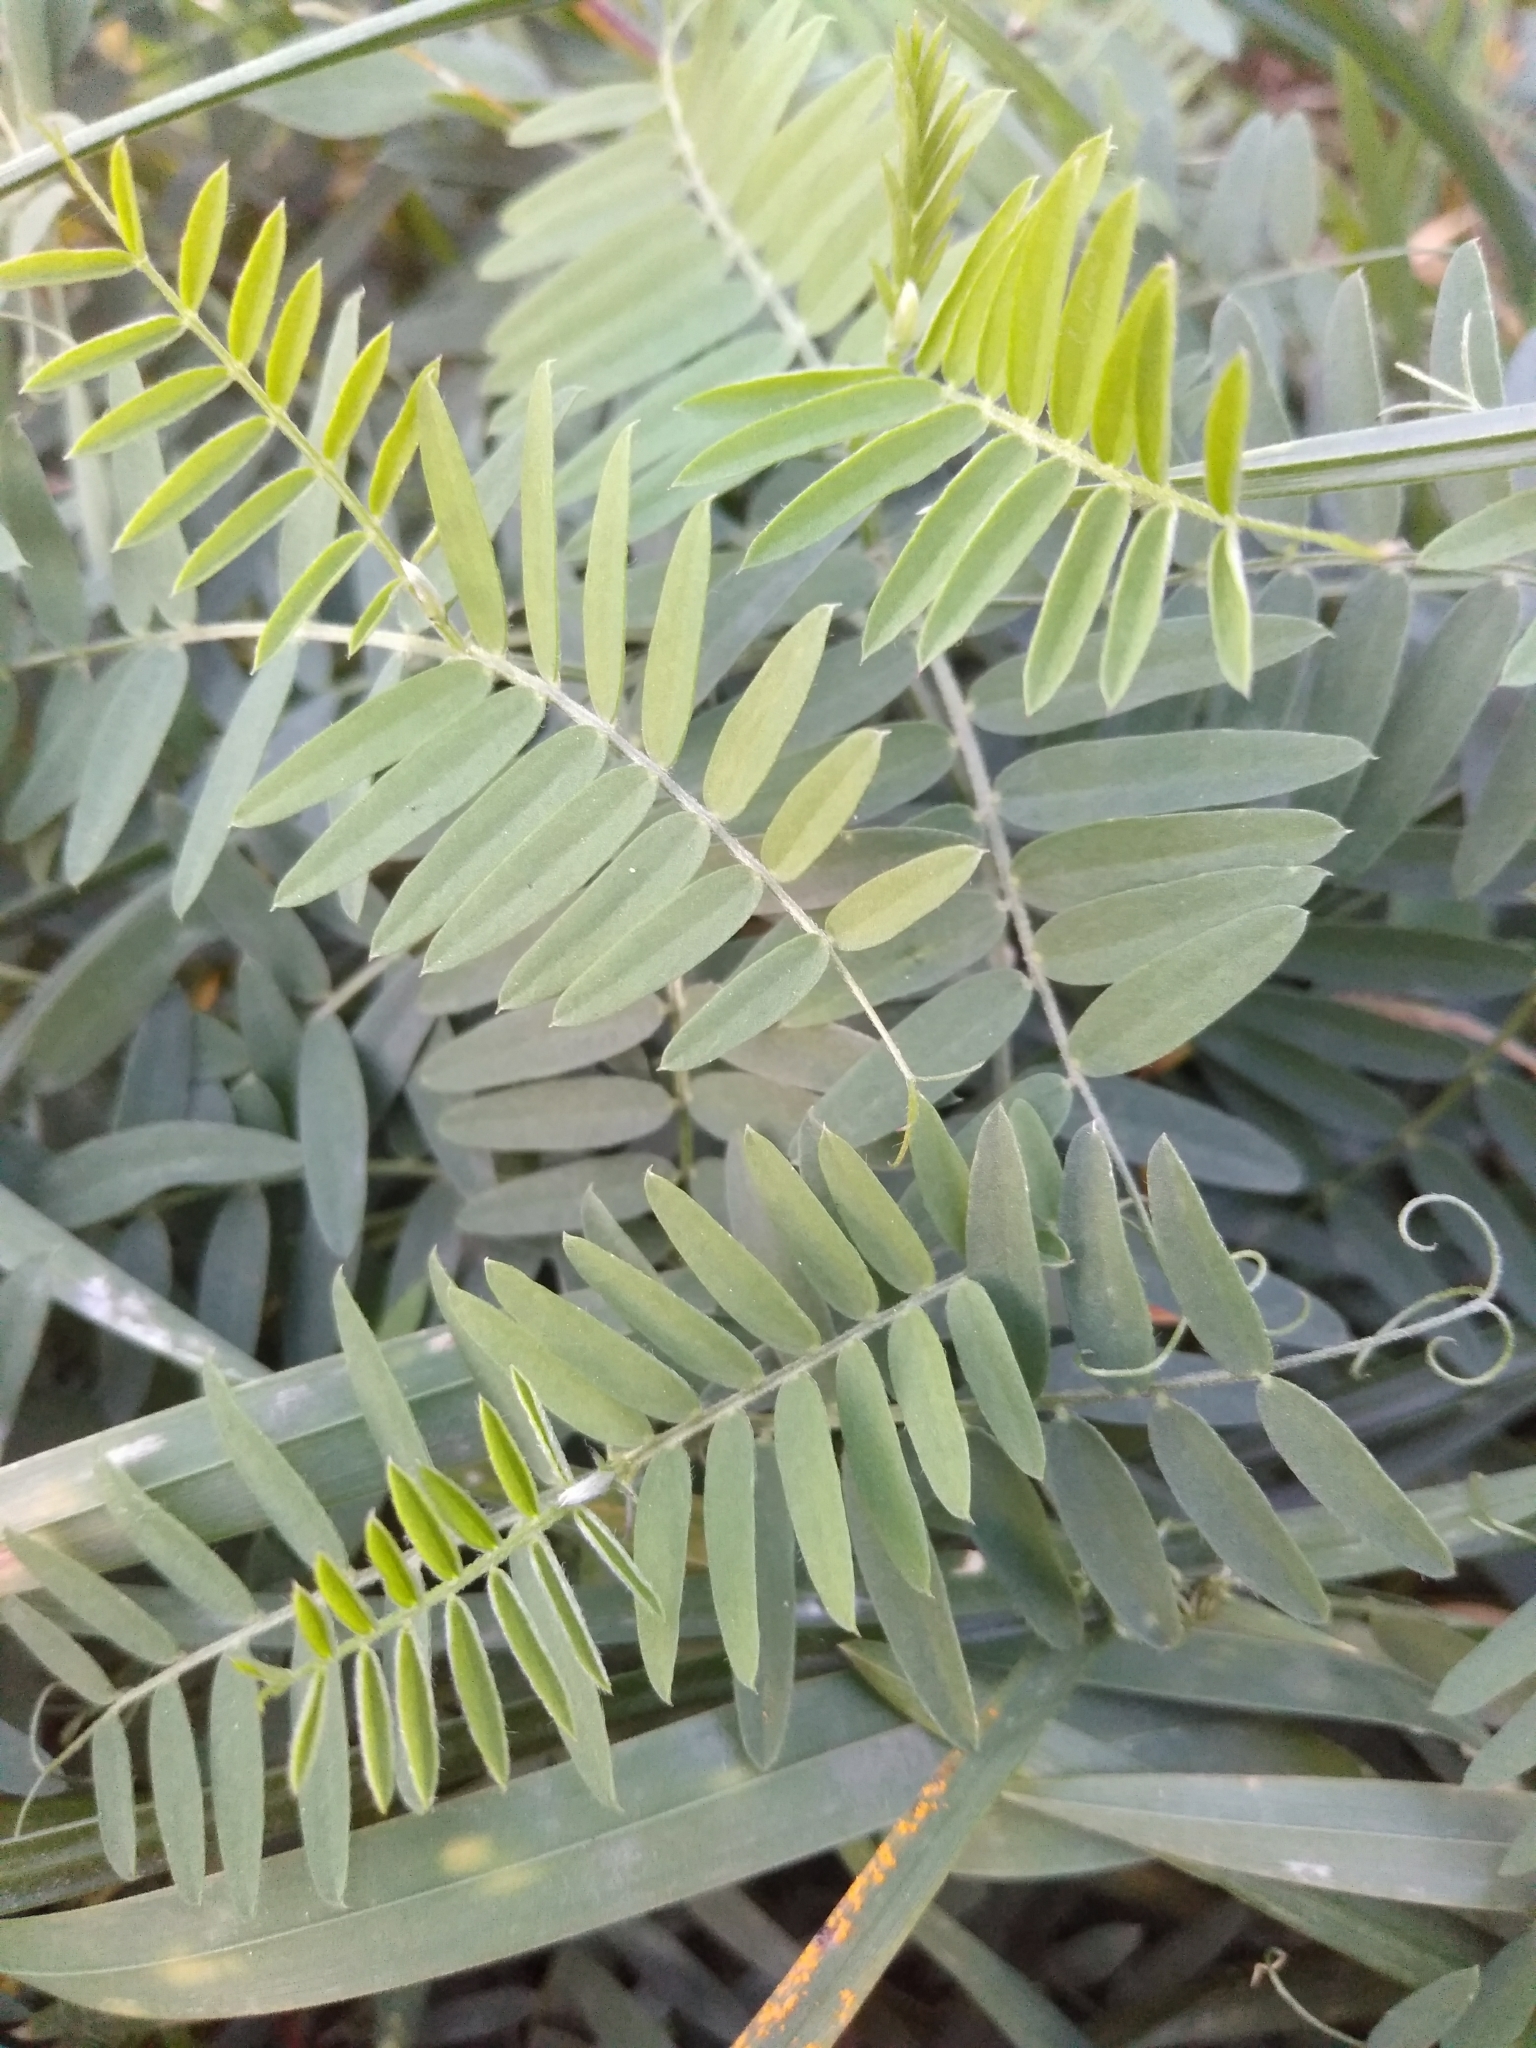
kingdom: Plantae
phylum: Tracheophyta
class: Magnoliopsida
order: Fabales
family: Fabaceae
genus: Vicia
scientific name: Vicia cracca
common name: Bird vetch
